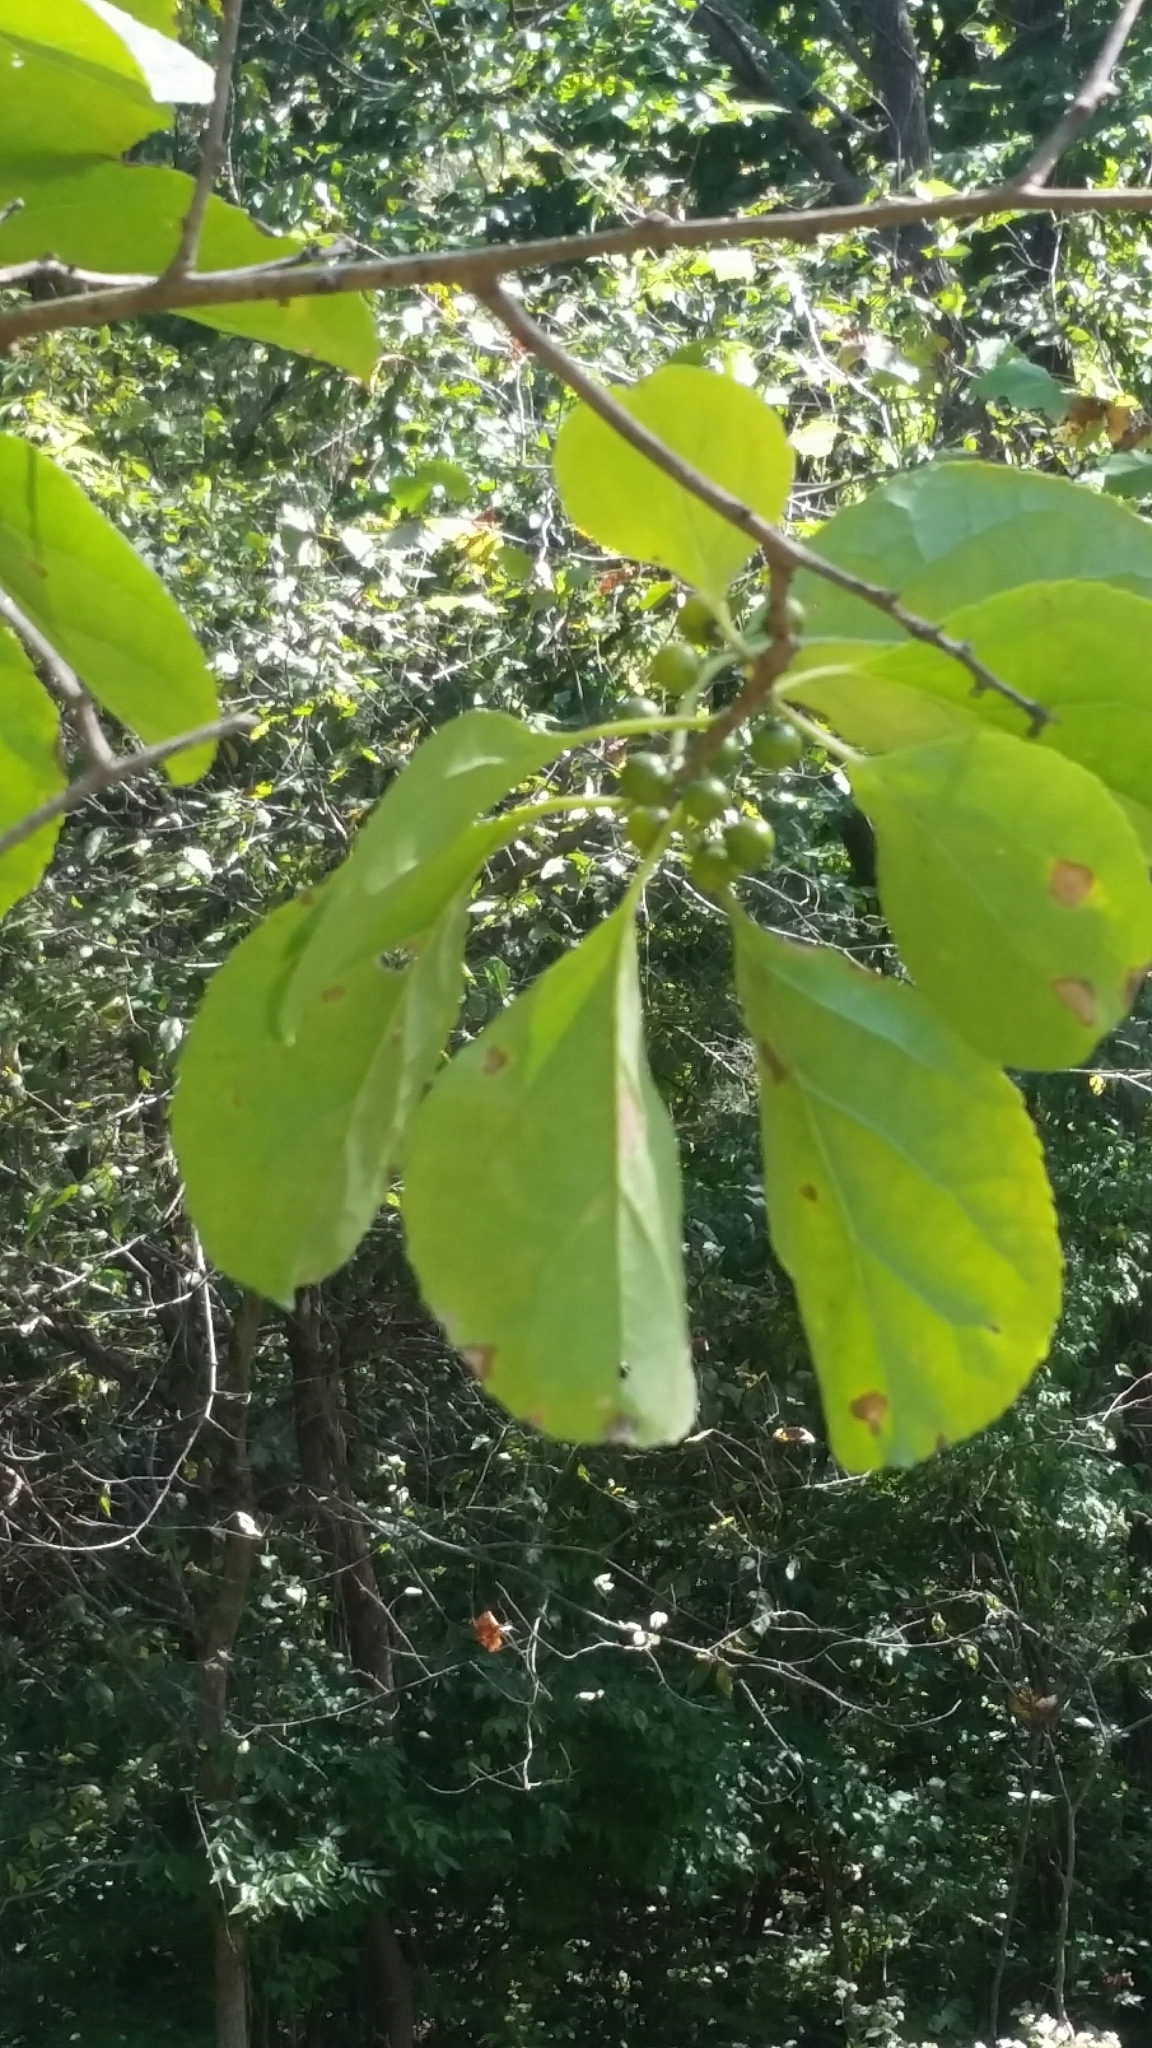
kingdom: Plantae
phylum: Tracheophyta
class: Magnoliopsida
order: Celastrales
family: Celastraceae
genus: Celastrus
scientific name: Celastrus orbiculatus
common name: Oriental bittersweet
